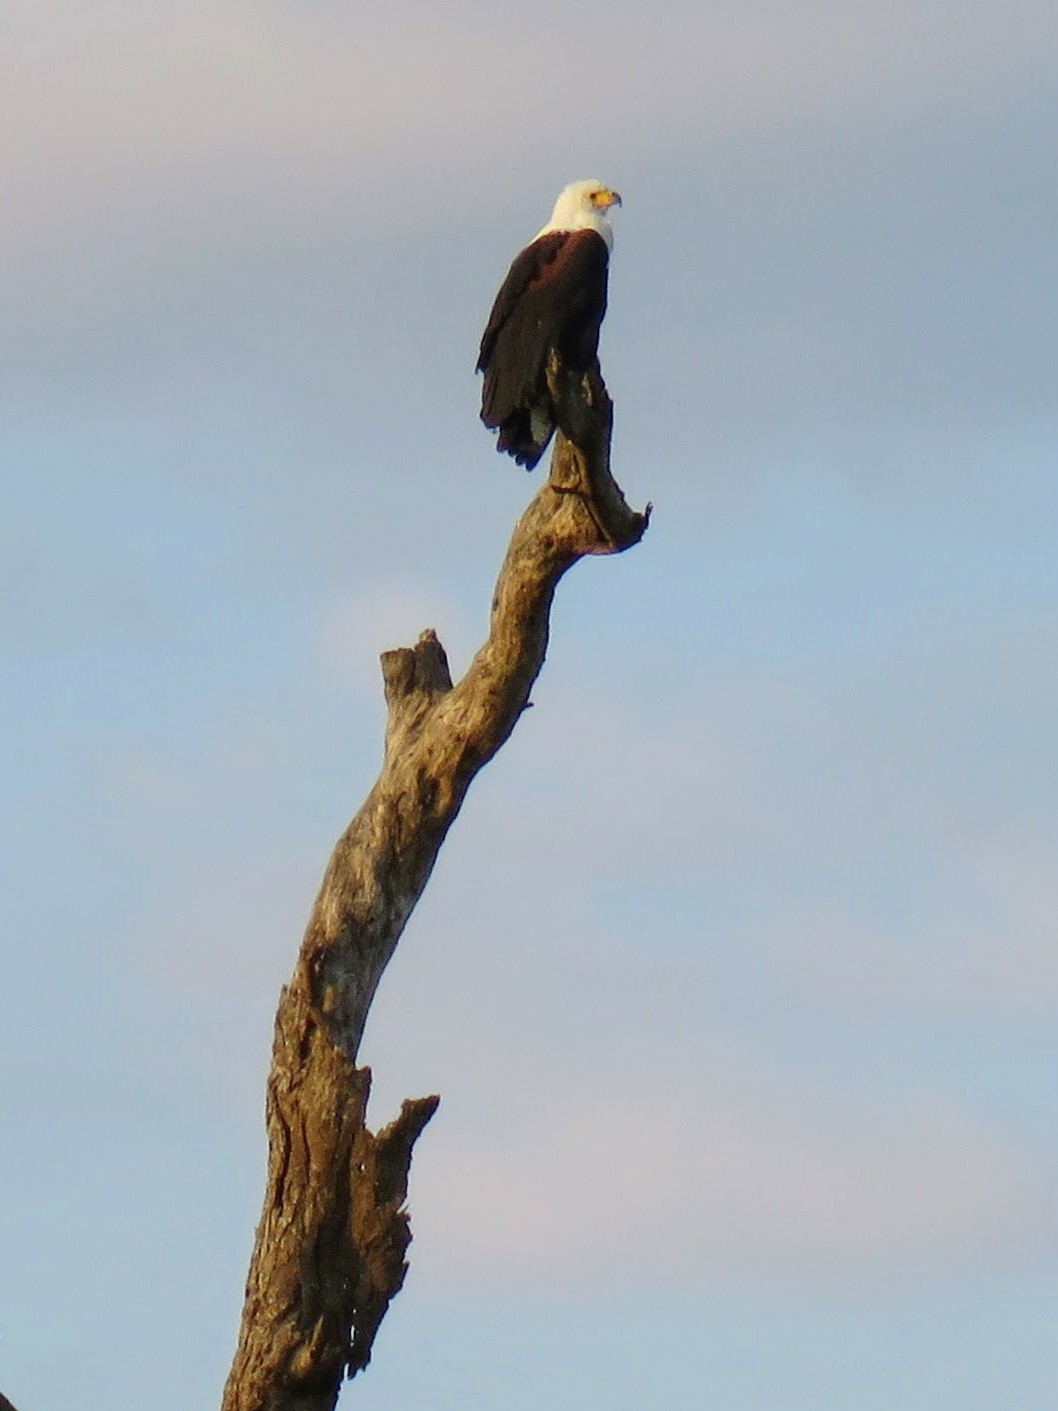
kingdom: Animalia
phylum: Chordata
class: Aves
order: Accipitriformes
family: Accipitridae
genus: Haliaeetus
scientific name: Haliaeetus vocifer
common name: African fish eagle
